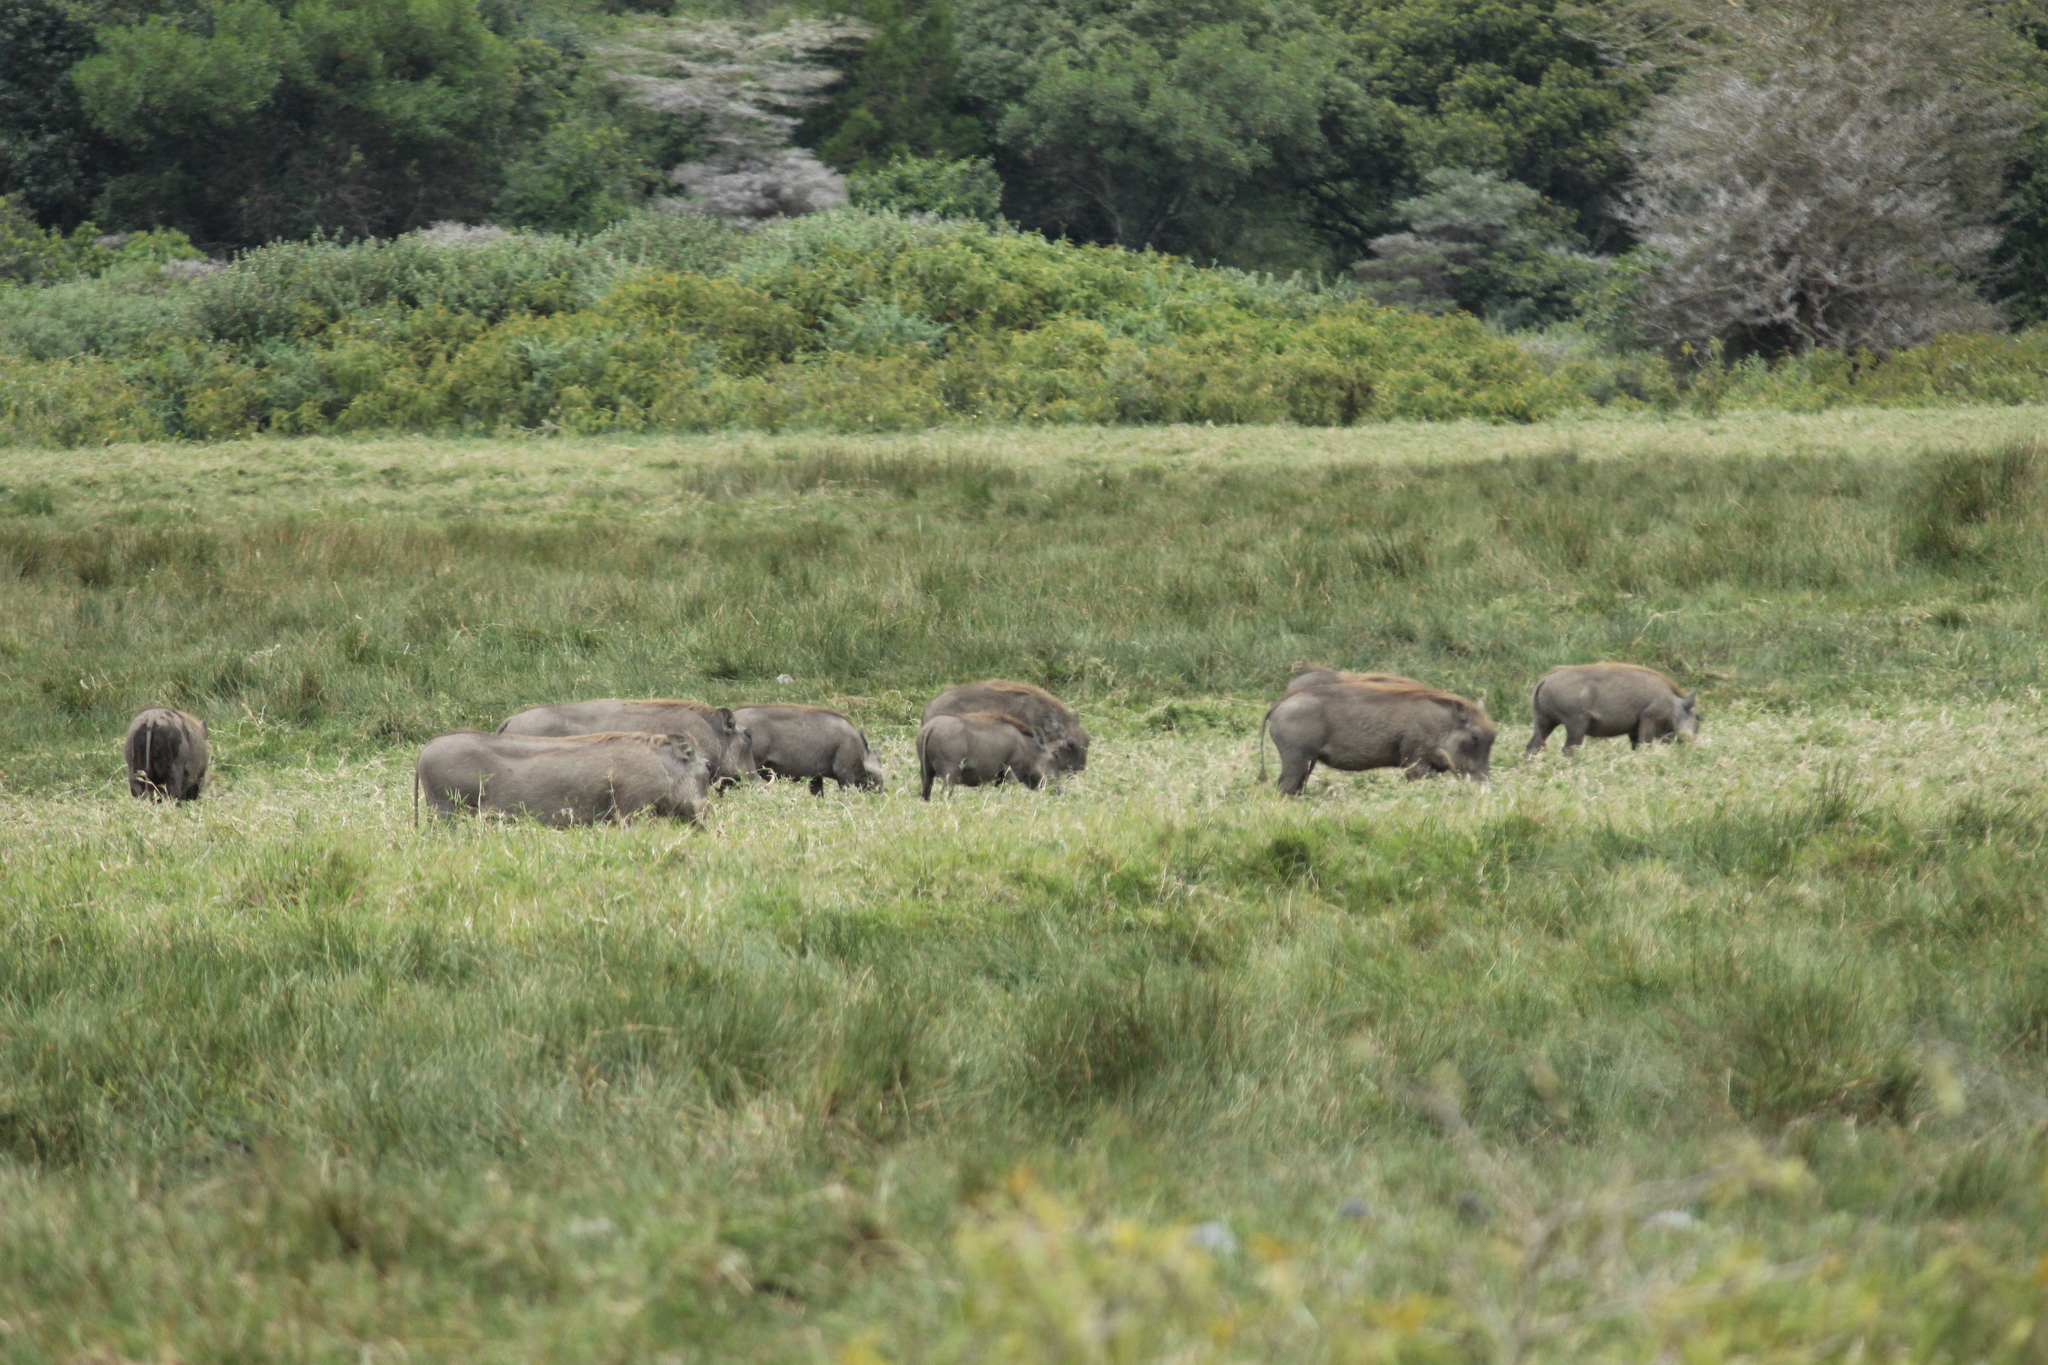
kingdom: Animalia
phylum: Chordata
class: Mammalia
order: Artiodactyla
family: Suidae
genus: Phacochoerus
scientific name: Phacochoerus africanus
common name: Common warthog
